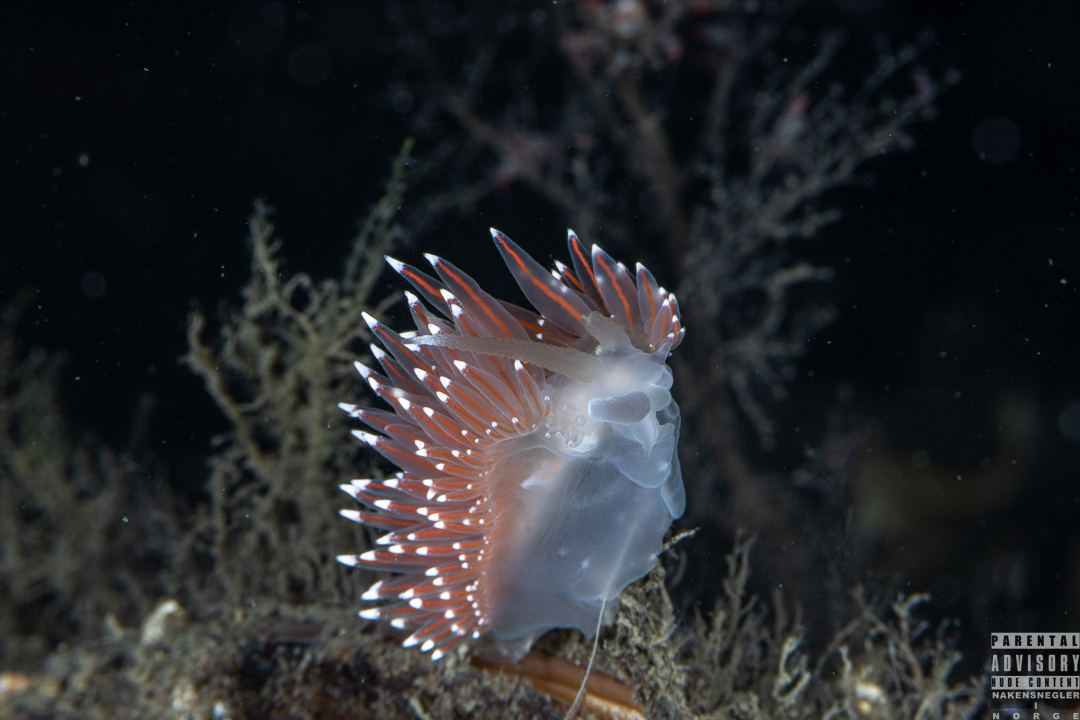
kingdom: Animalia
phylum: Mollusca
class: Gastropoda
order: Nudibranchia
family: Coryphellidae
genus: Coryphella
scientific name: Coryphella nobilis
